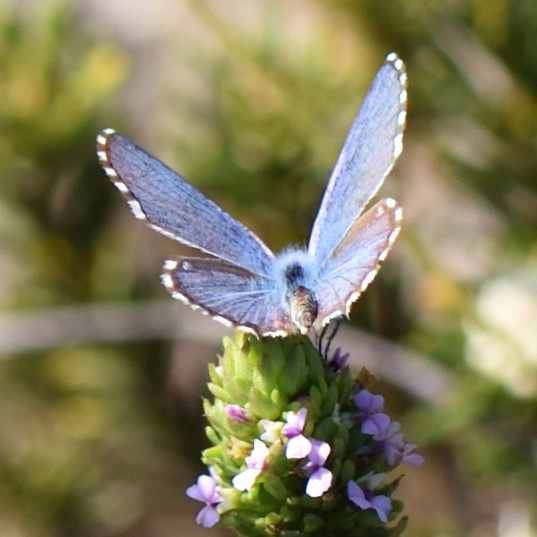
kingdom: Animalia
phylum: Arthropoda
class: Insecta
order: Lepidoptera
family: Lycaenidae
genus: Tarucus
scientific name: Tarucus thespis
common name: Vivid dotted blue
